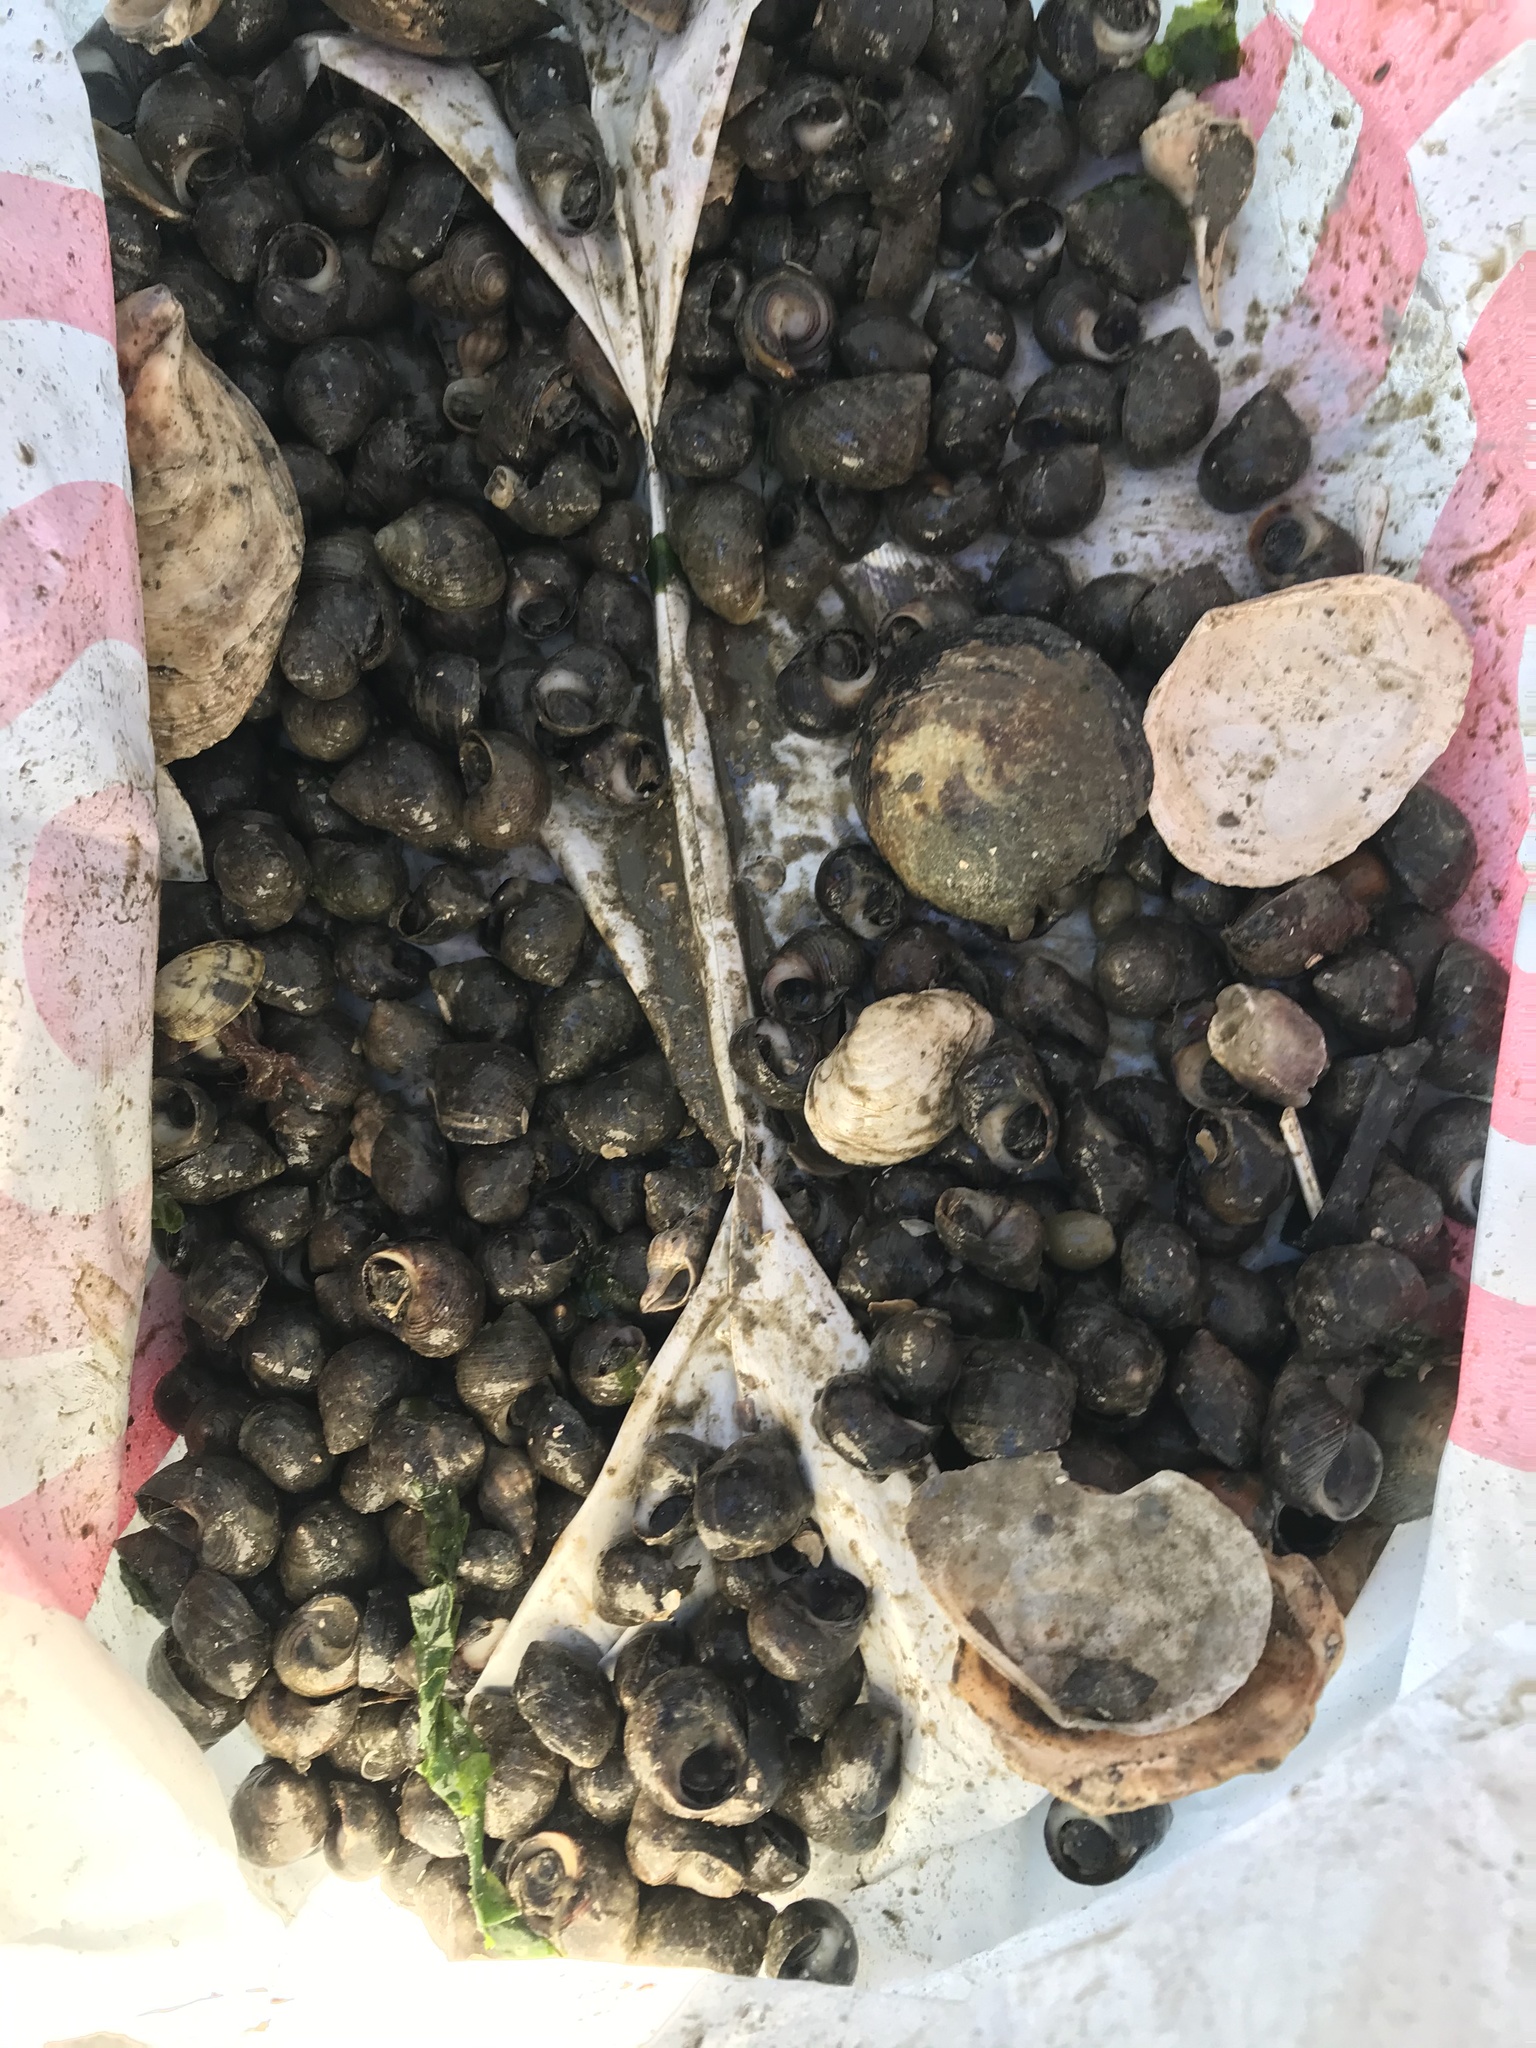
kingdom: Animalia
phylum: Mollusca
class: Gastropoda
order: Littorinimorpha
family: Littorinidae
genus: Littorina
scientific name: Littorina littorea
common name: Common periwinkle
